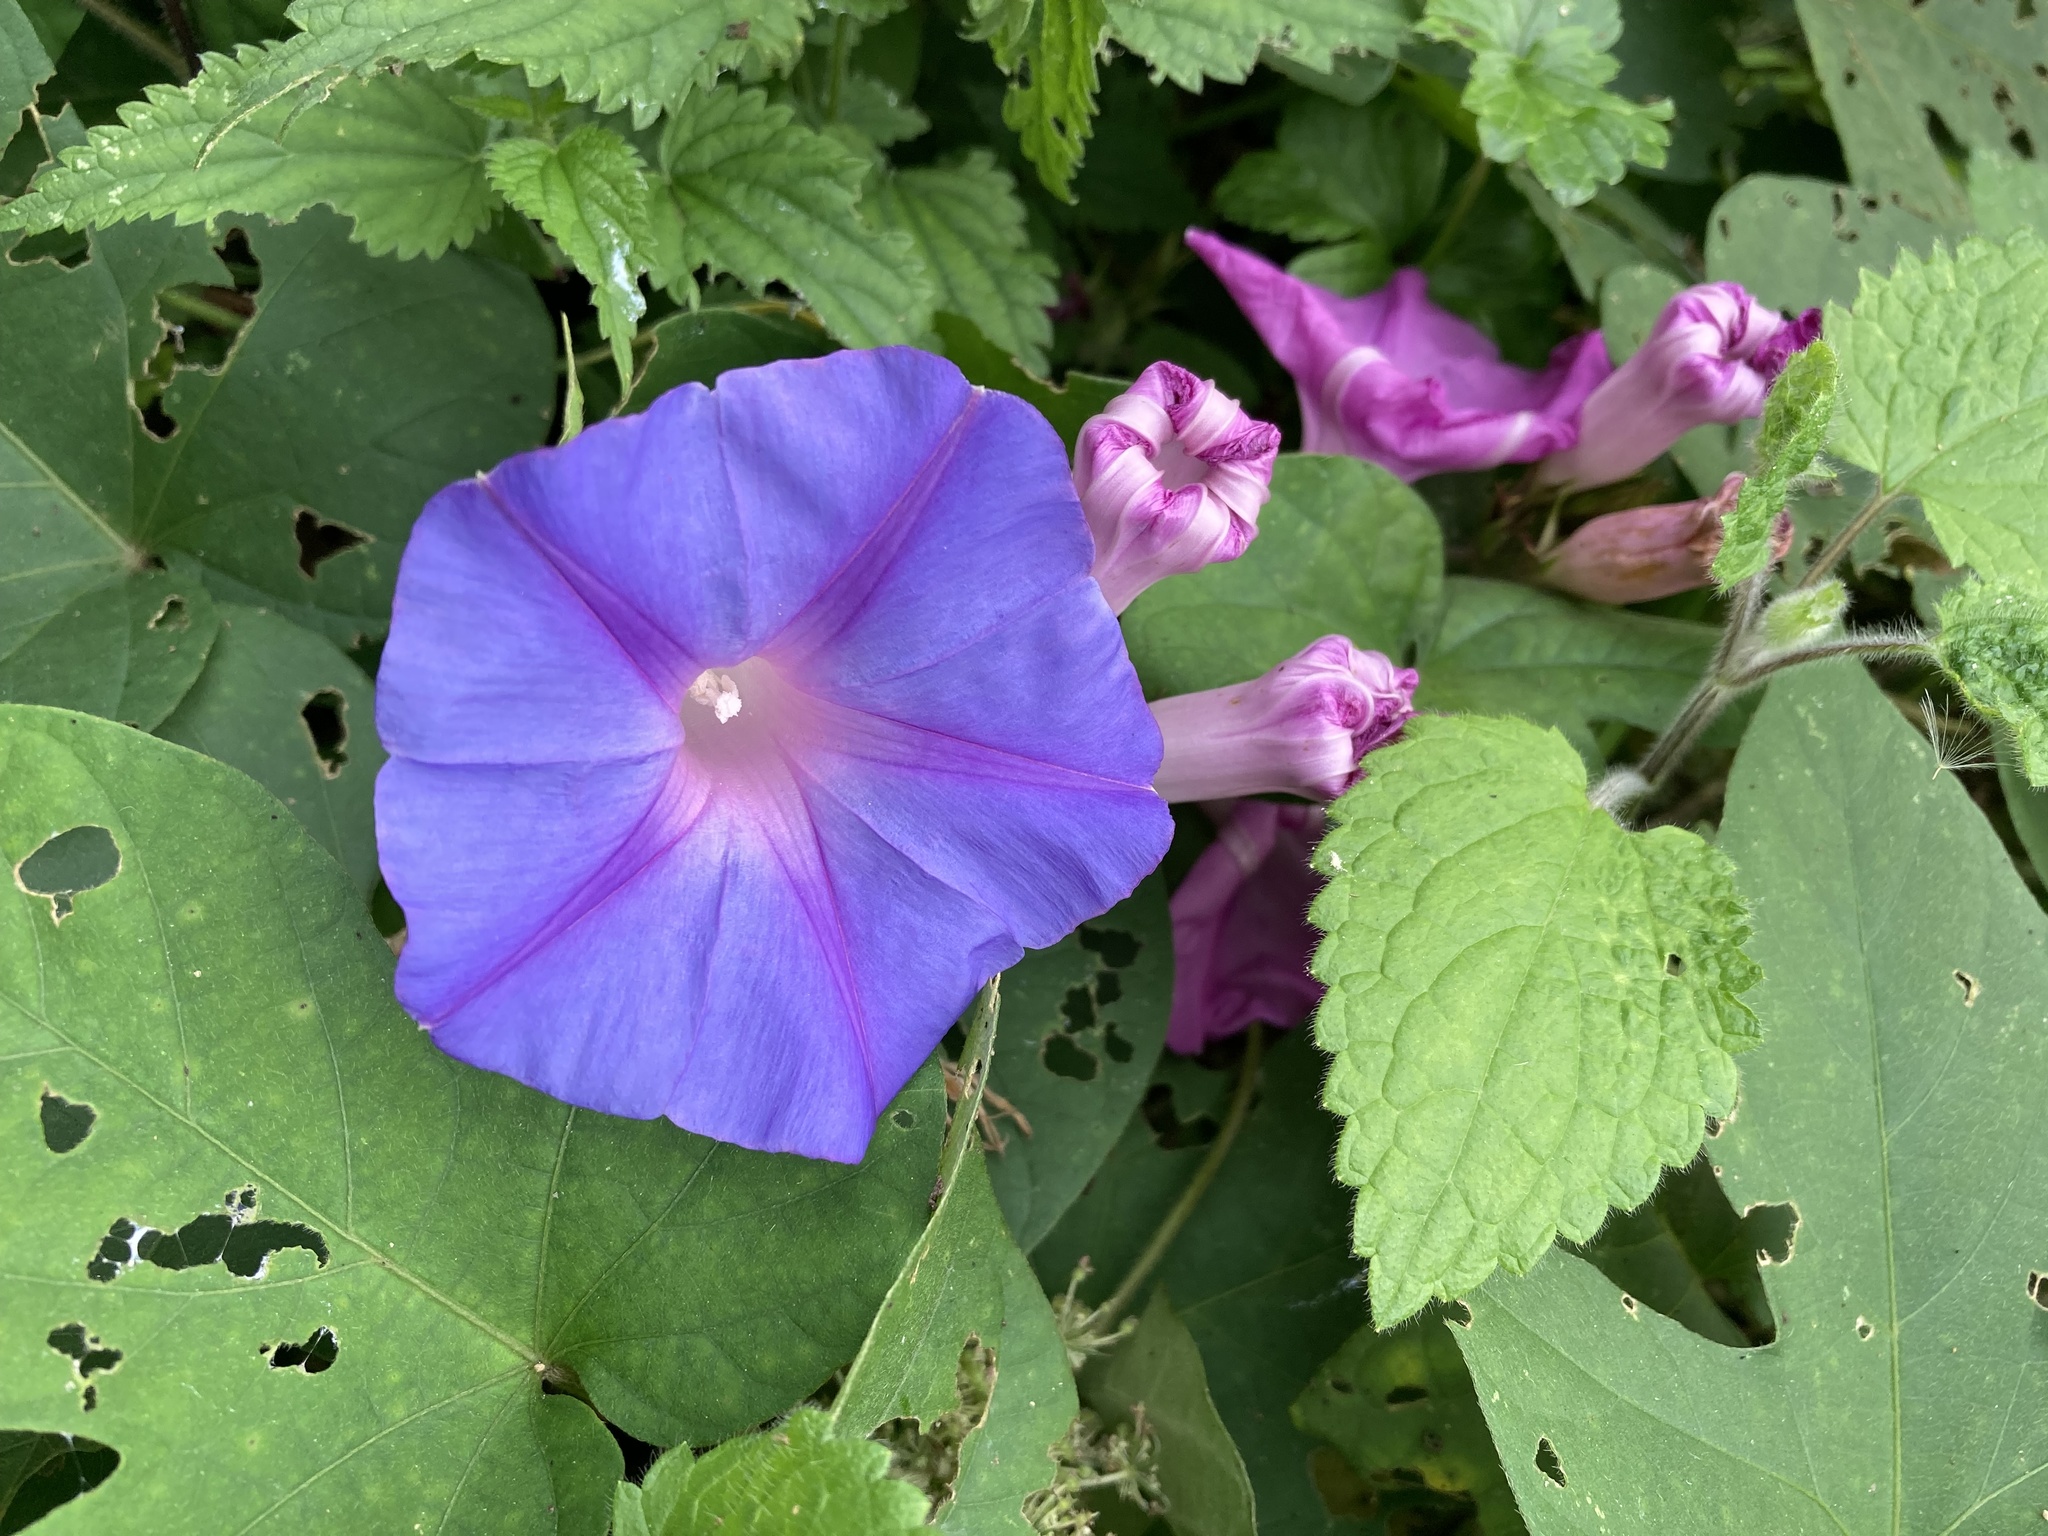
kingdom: Plantae
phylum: Tracheophyta
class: Magnoliopsida
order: Solanales
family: Convolvulaceae
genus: Ipomoea
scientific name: Ipomoea indica
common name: Blue dawnflower
